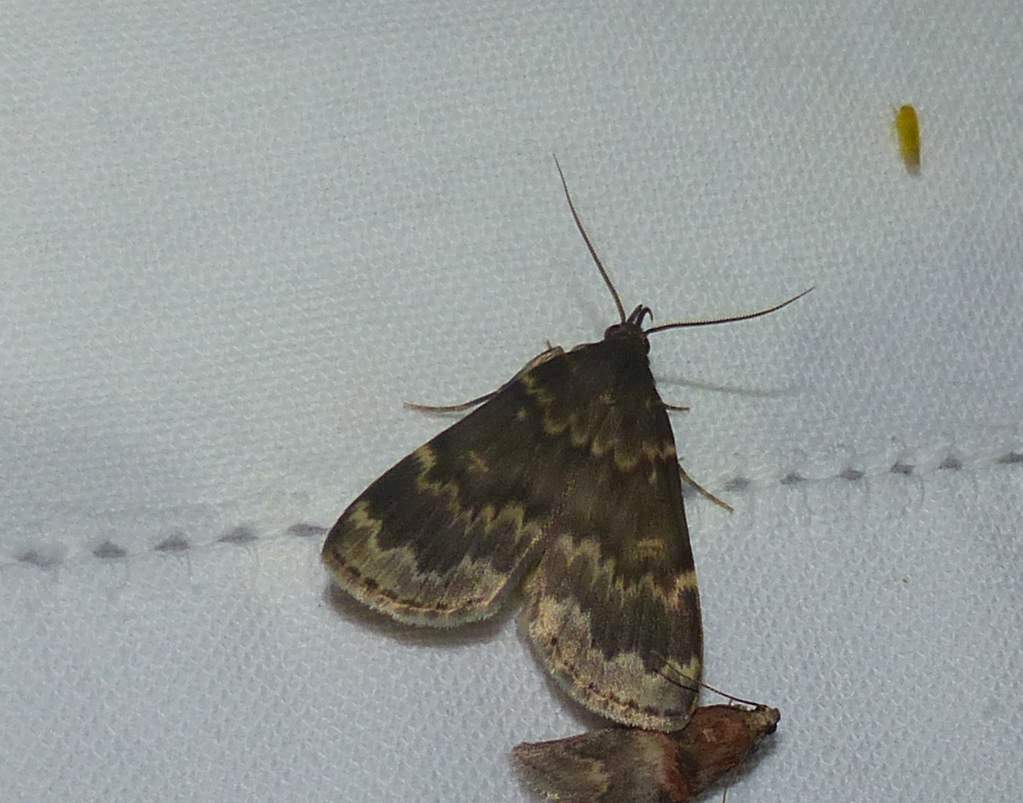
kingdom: Animalia
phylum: Arthropoda
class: Insecta
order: Lepidoptera
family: Erebidae
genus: Idia
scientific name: Idia lubricalis
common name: Twin-striped tabby
